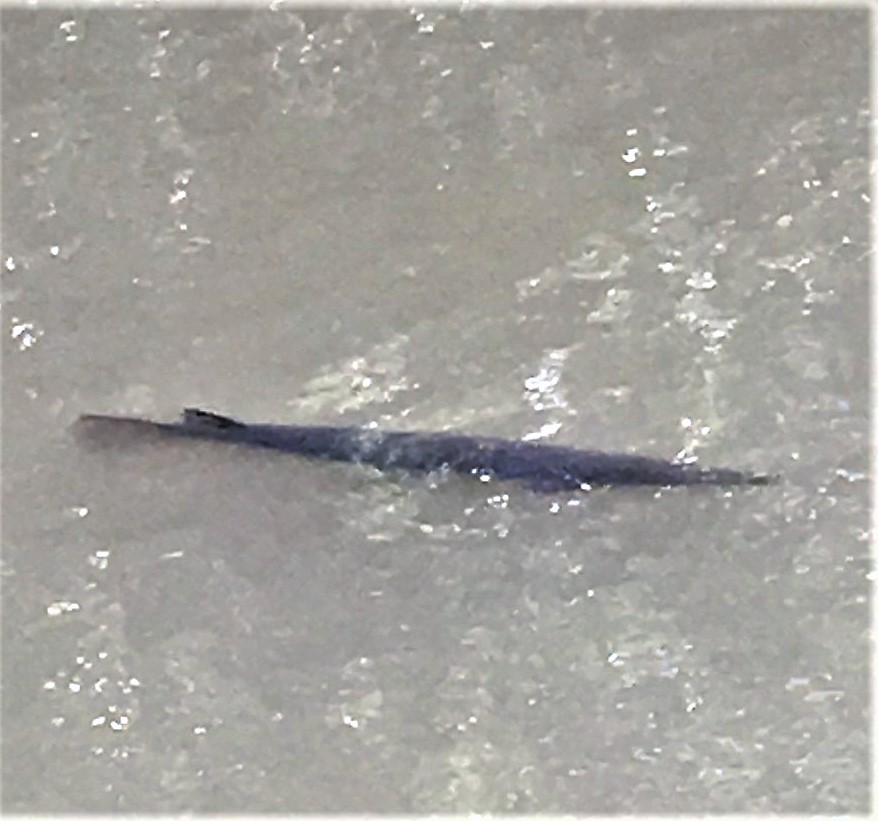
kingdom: Animalia
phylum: Chordata
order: Lepisosteiformes
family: Lepisosteidae
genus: Lepisosteus
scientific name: Lepisosteus oculatus
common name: Spotted gar
